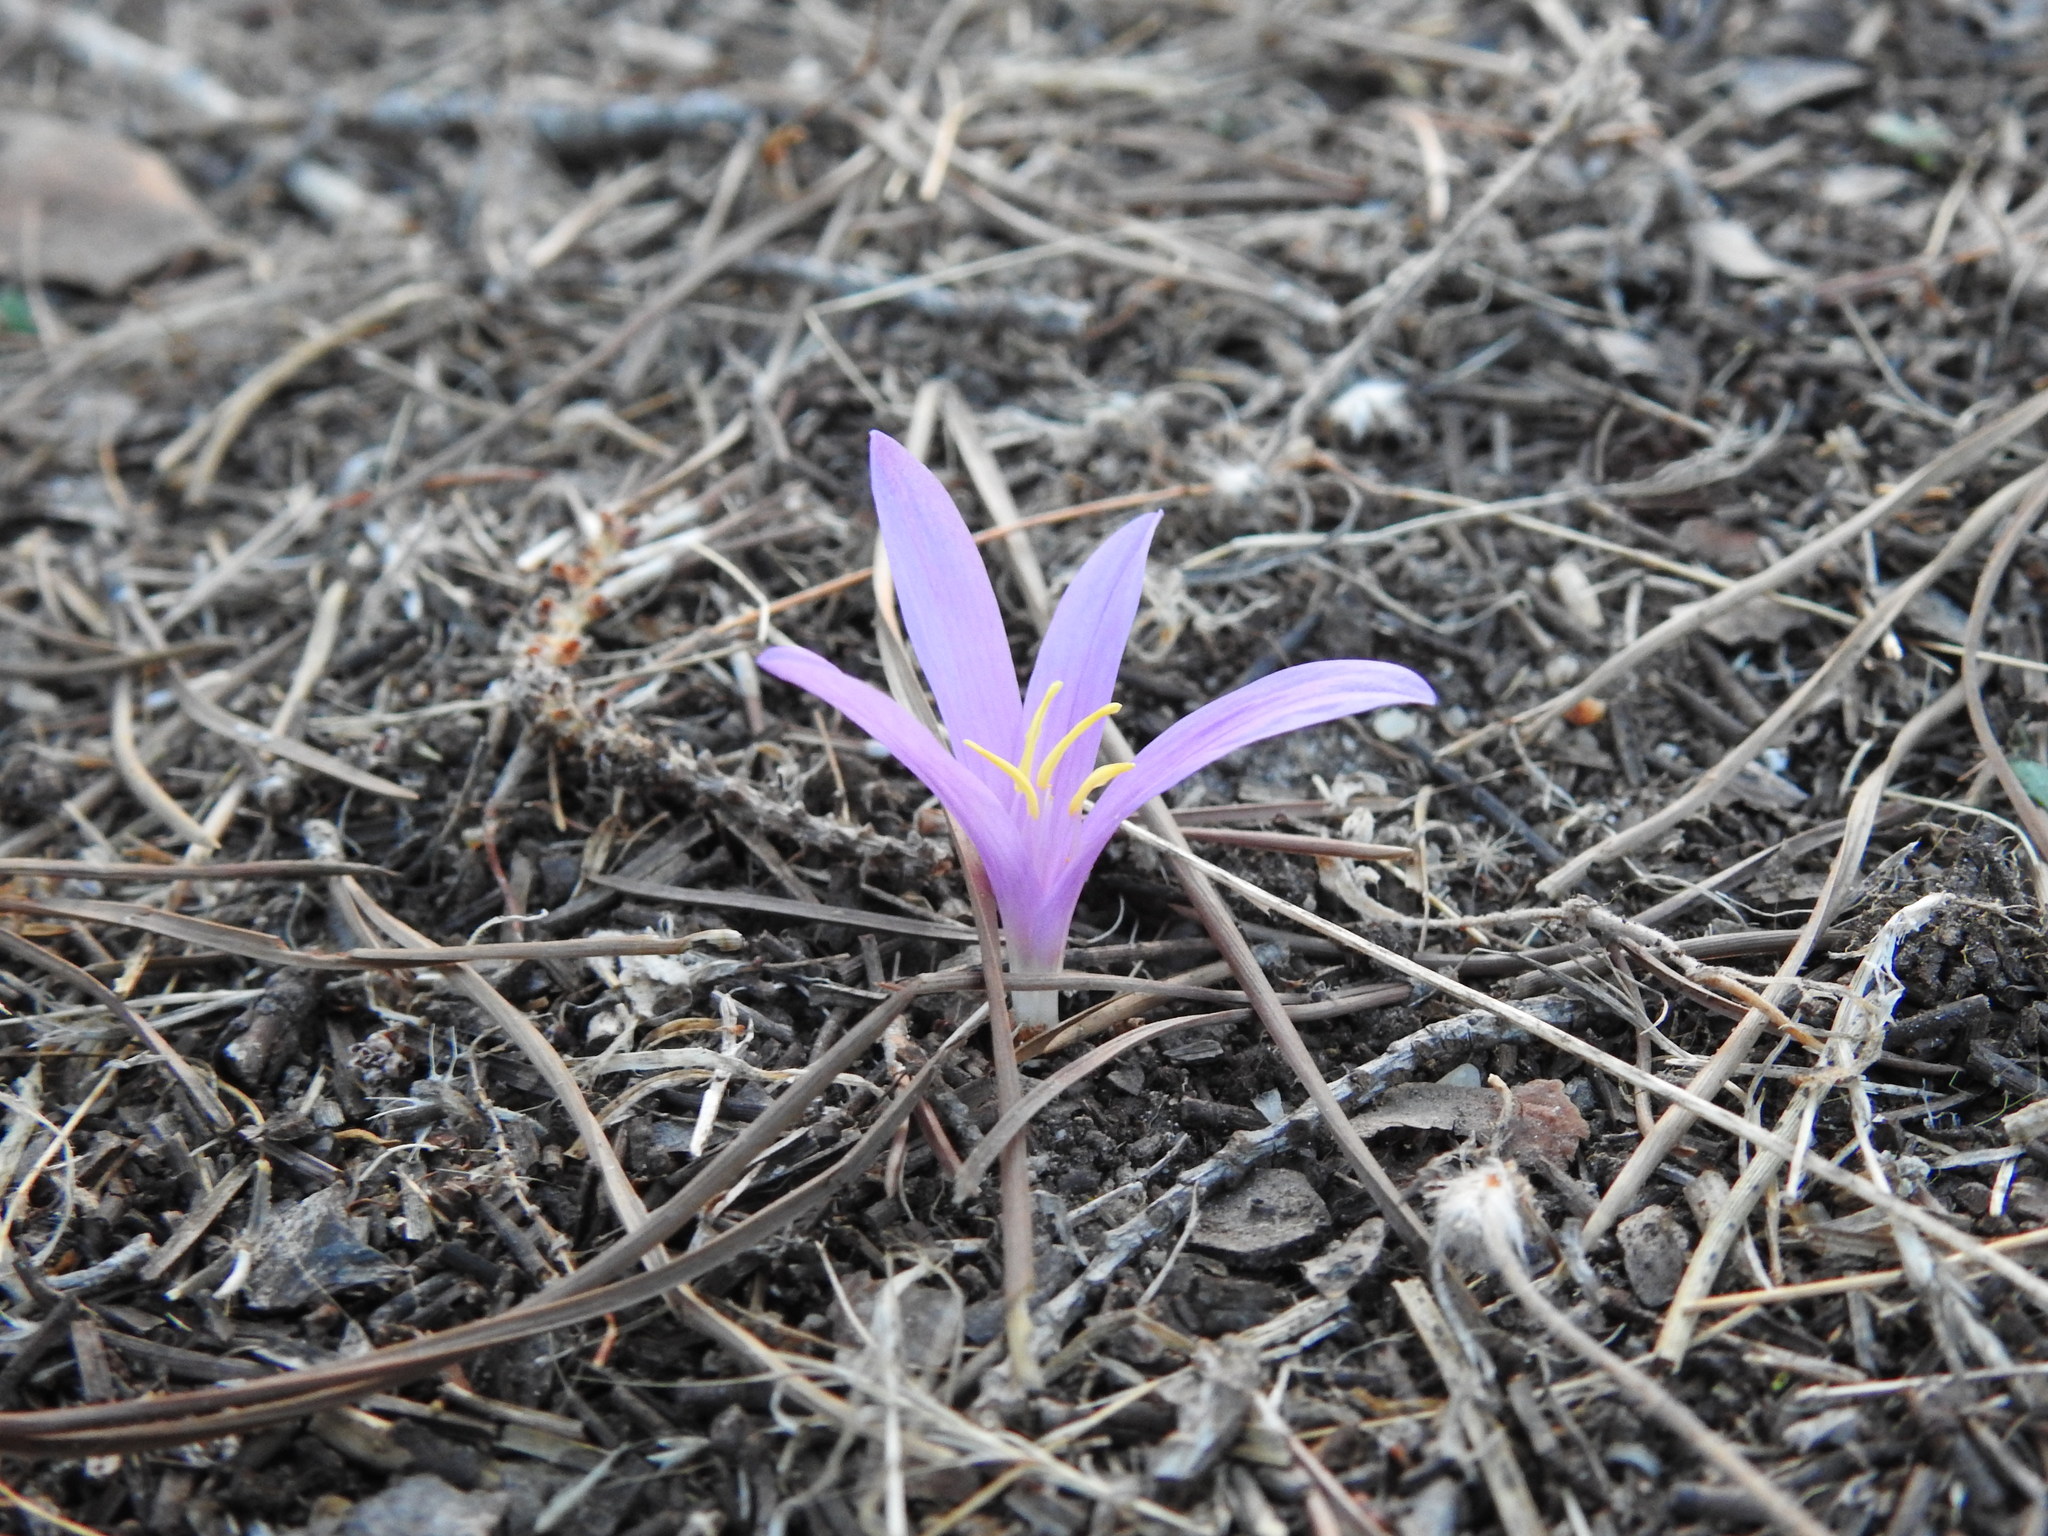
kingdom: Plantae
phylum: Tracheophyta
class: Liliopsida
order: Liliales
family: Colchicaceae
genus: Colchicum
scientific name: Colchicum filifolium
